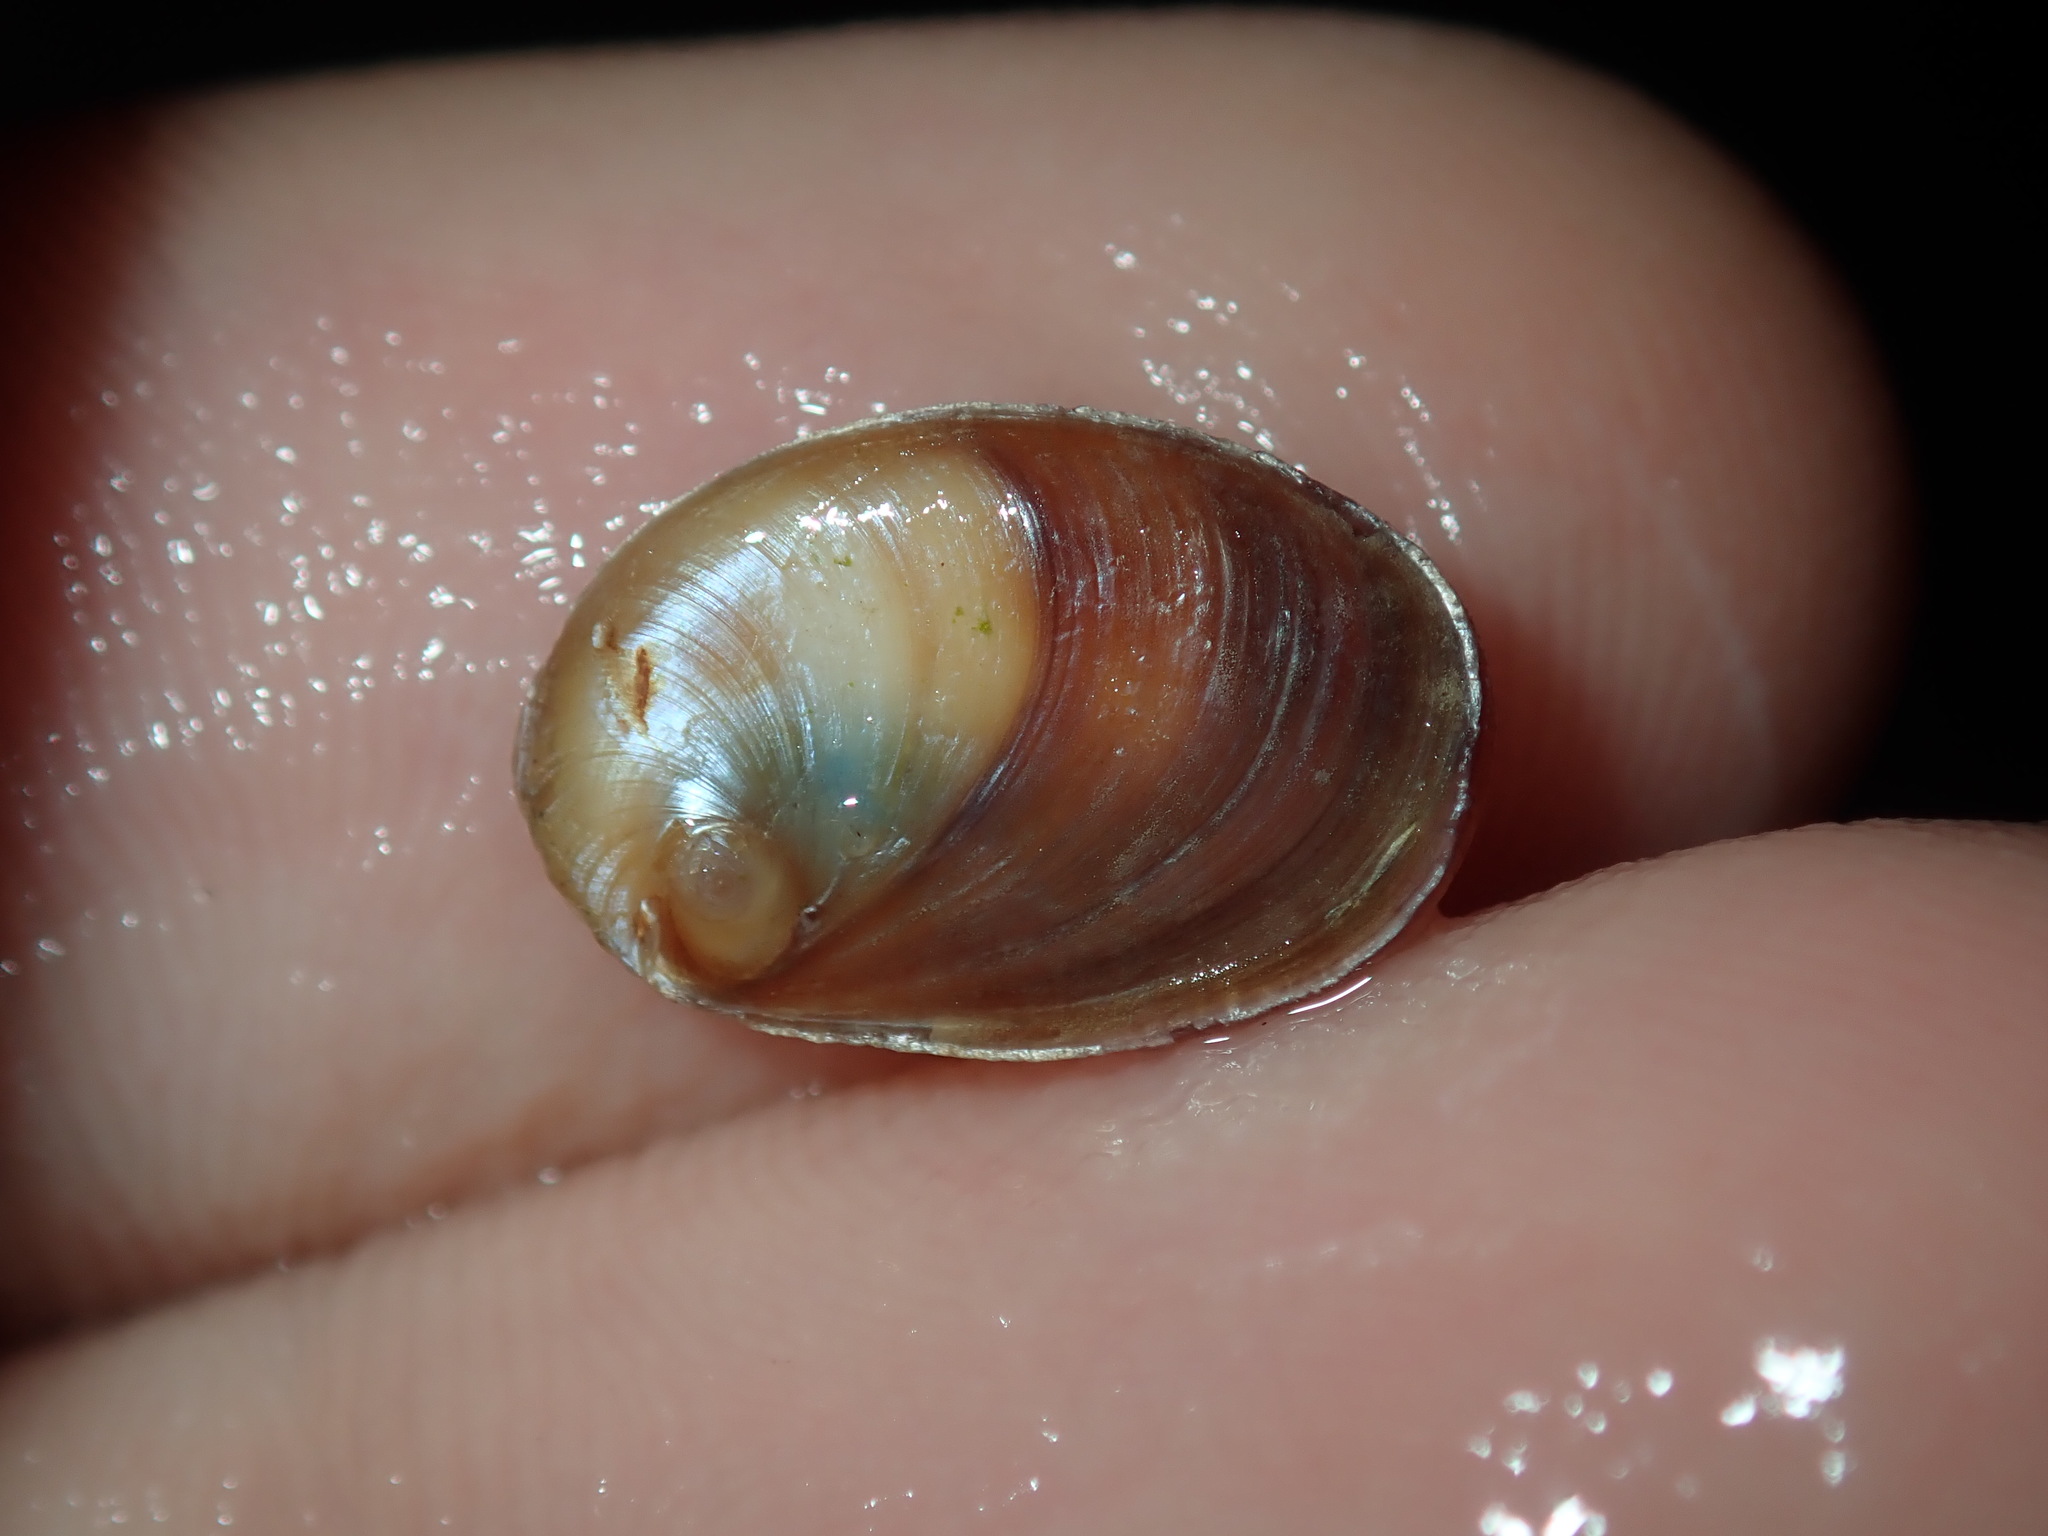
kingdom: Animalia
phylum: Mollusca
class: Gastropoda
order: Trochida
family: Turbinidae
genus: Astralium
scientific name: Astralium tentoriiforme
